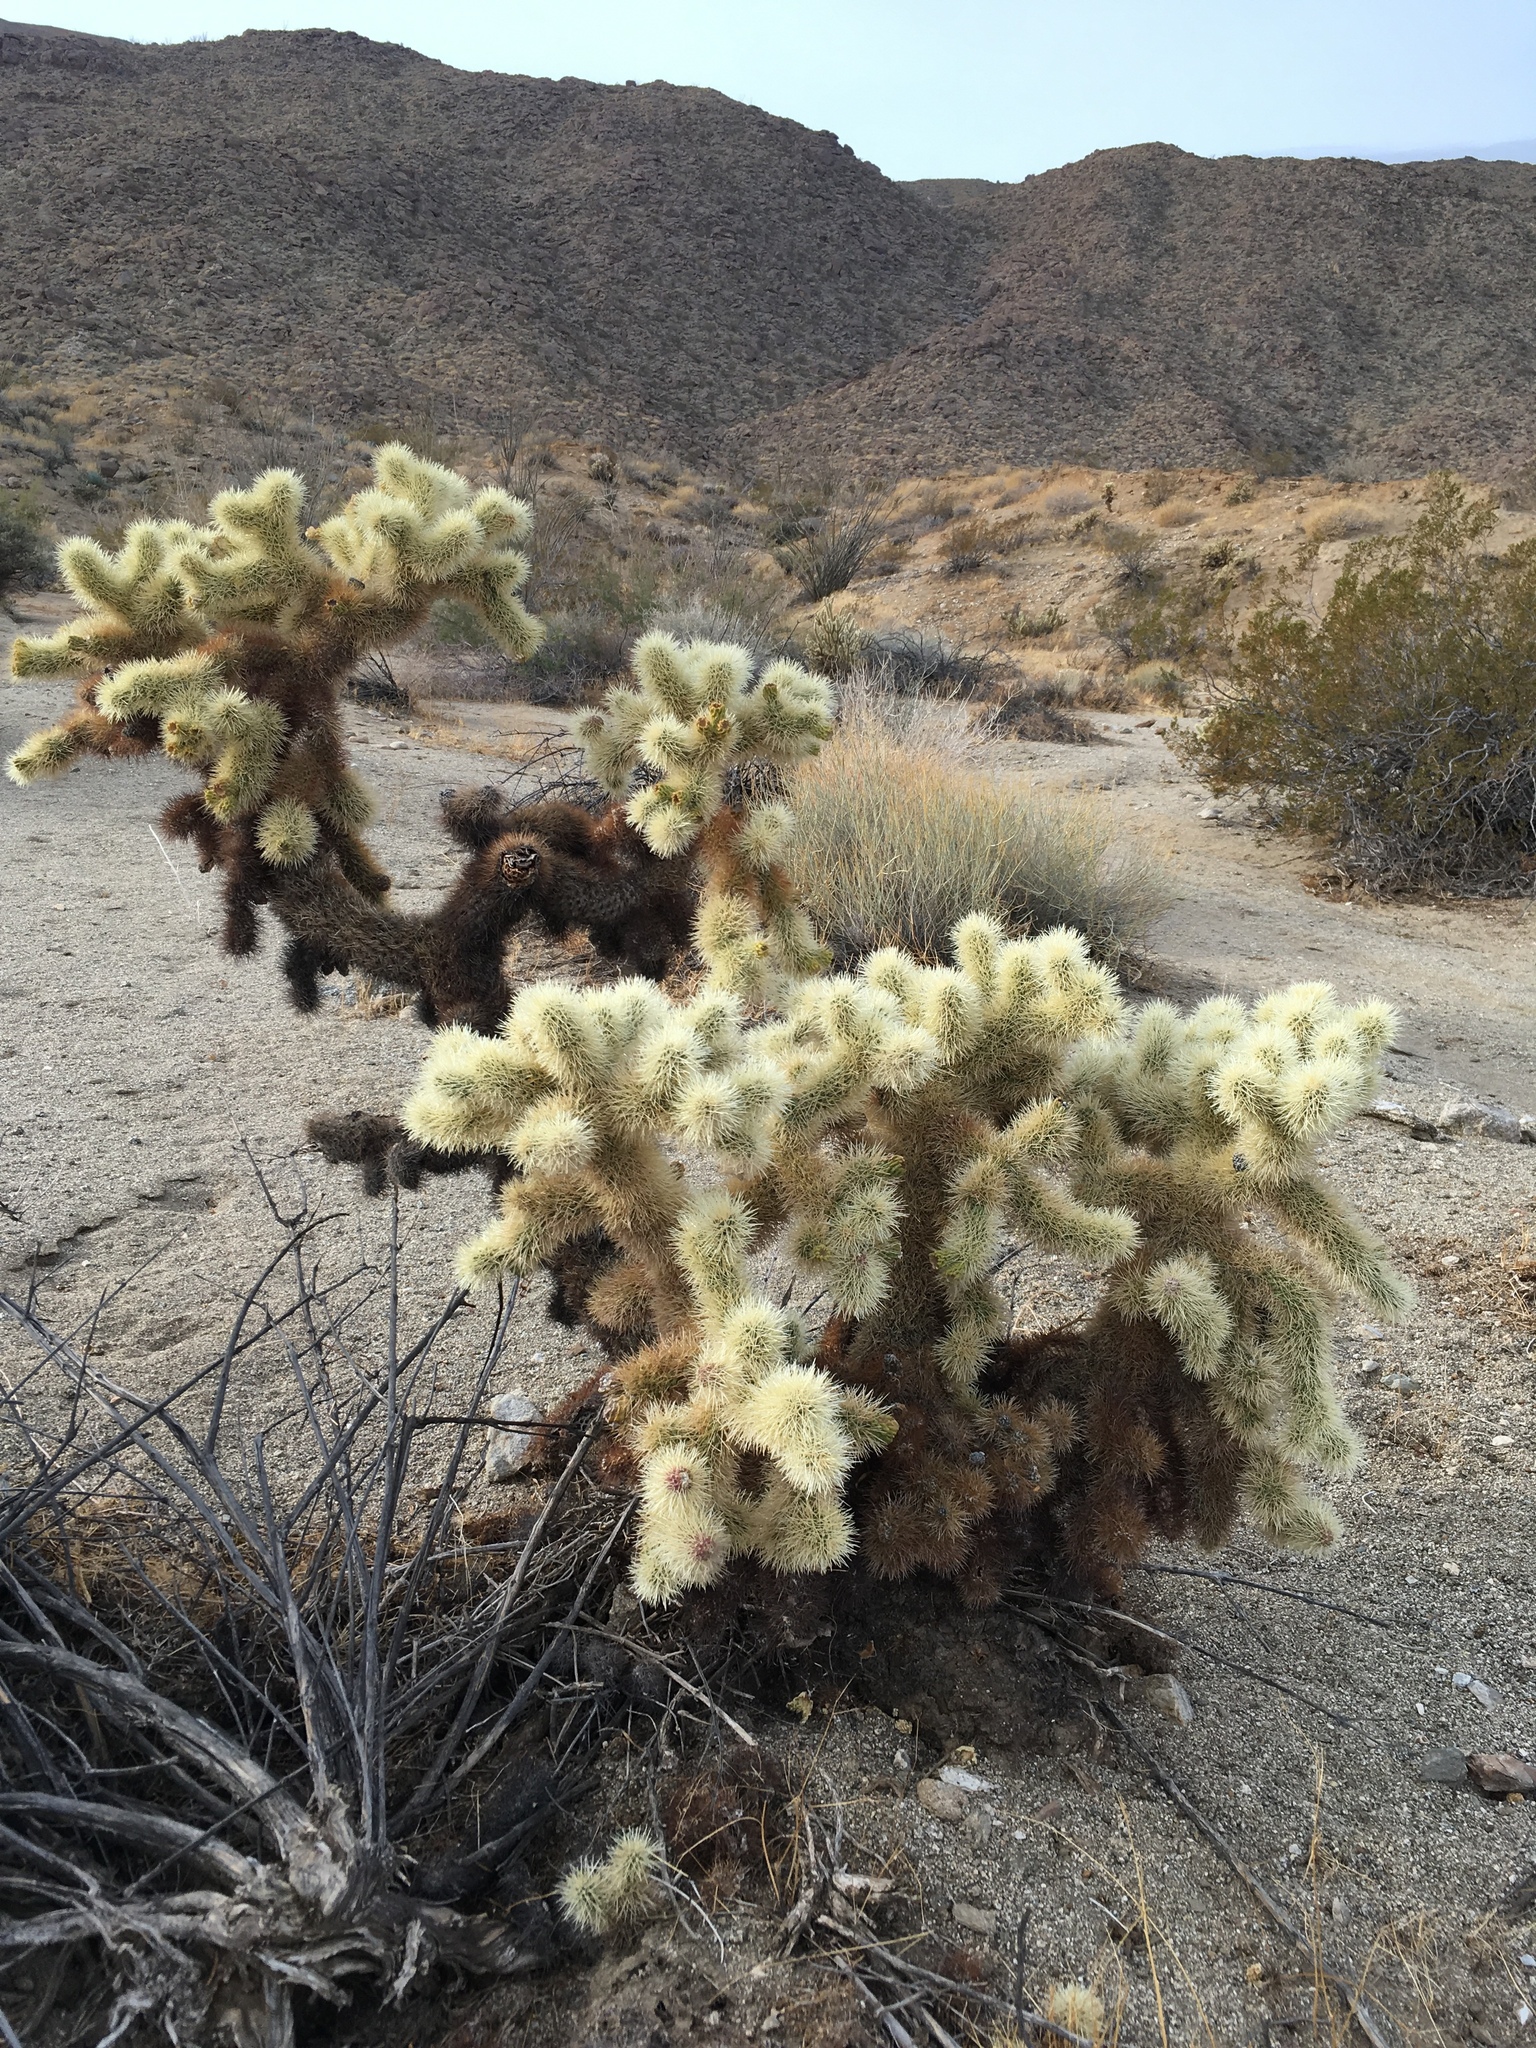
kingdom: Plantae
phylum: Tracheophyta
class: Magnoliopsida
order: Caryophyllales
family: Cactaceae
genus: Cylindropuntia
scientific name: Cylindropuntia fosbergii
